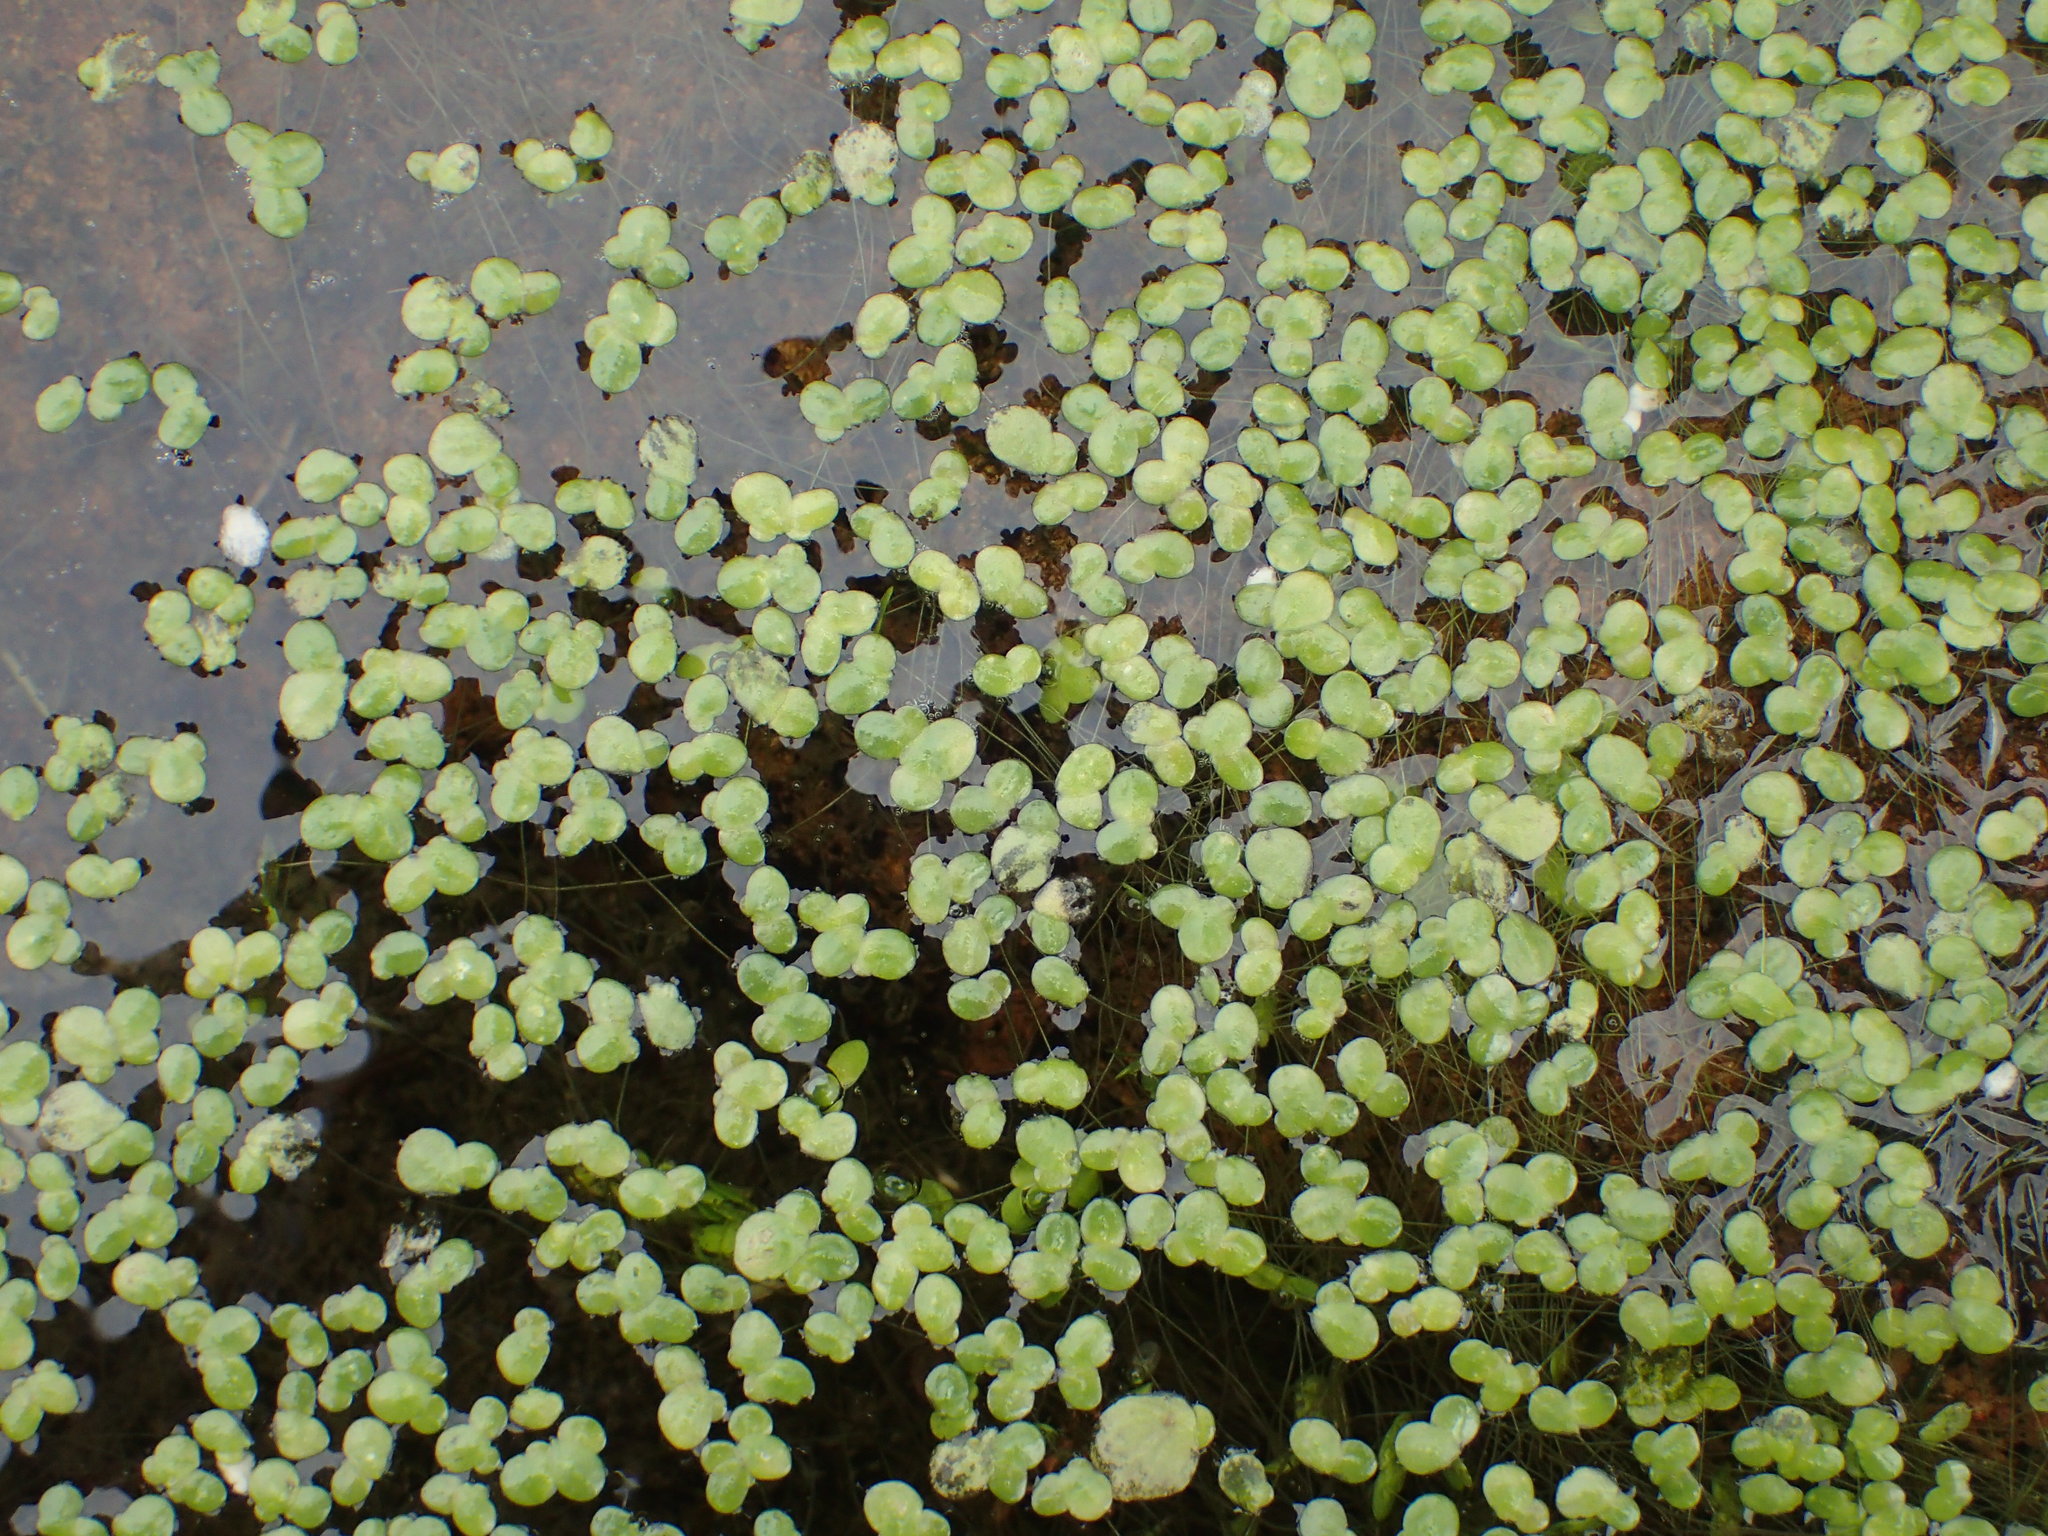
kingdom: Plantae
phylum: Tracheophyta
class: Liliopsida
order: Alismatales
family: Araceae
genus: Lemna
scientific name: Lemna minor
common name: Common duckweed
